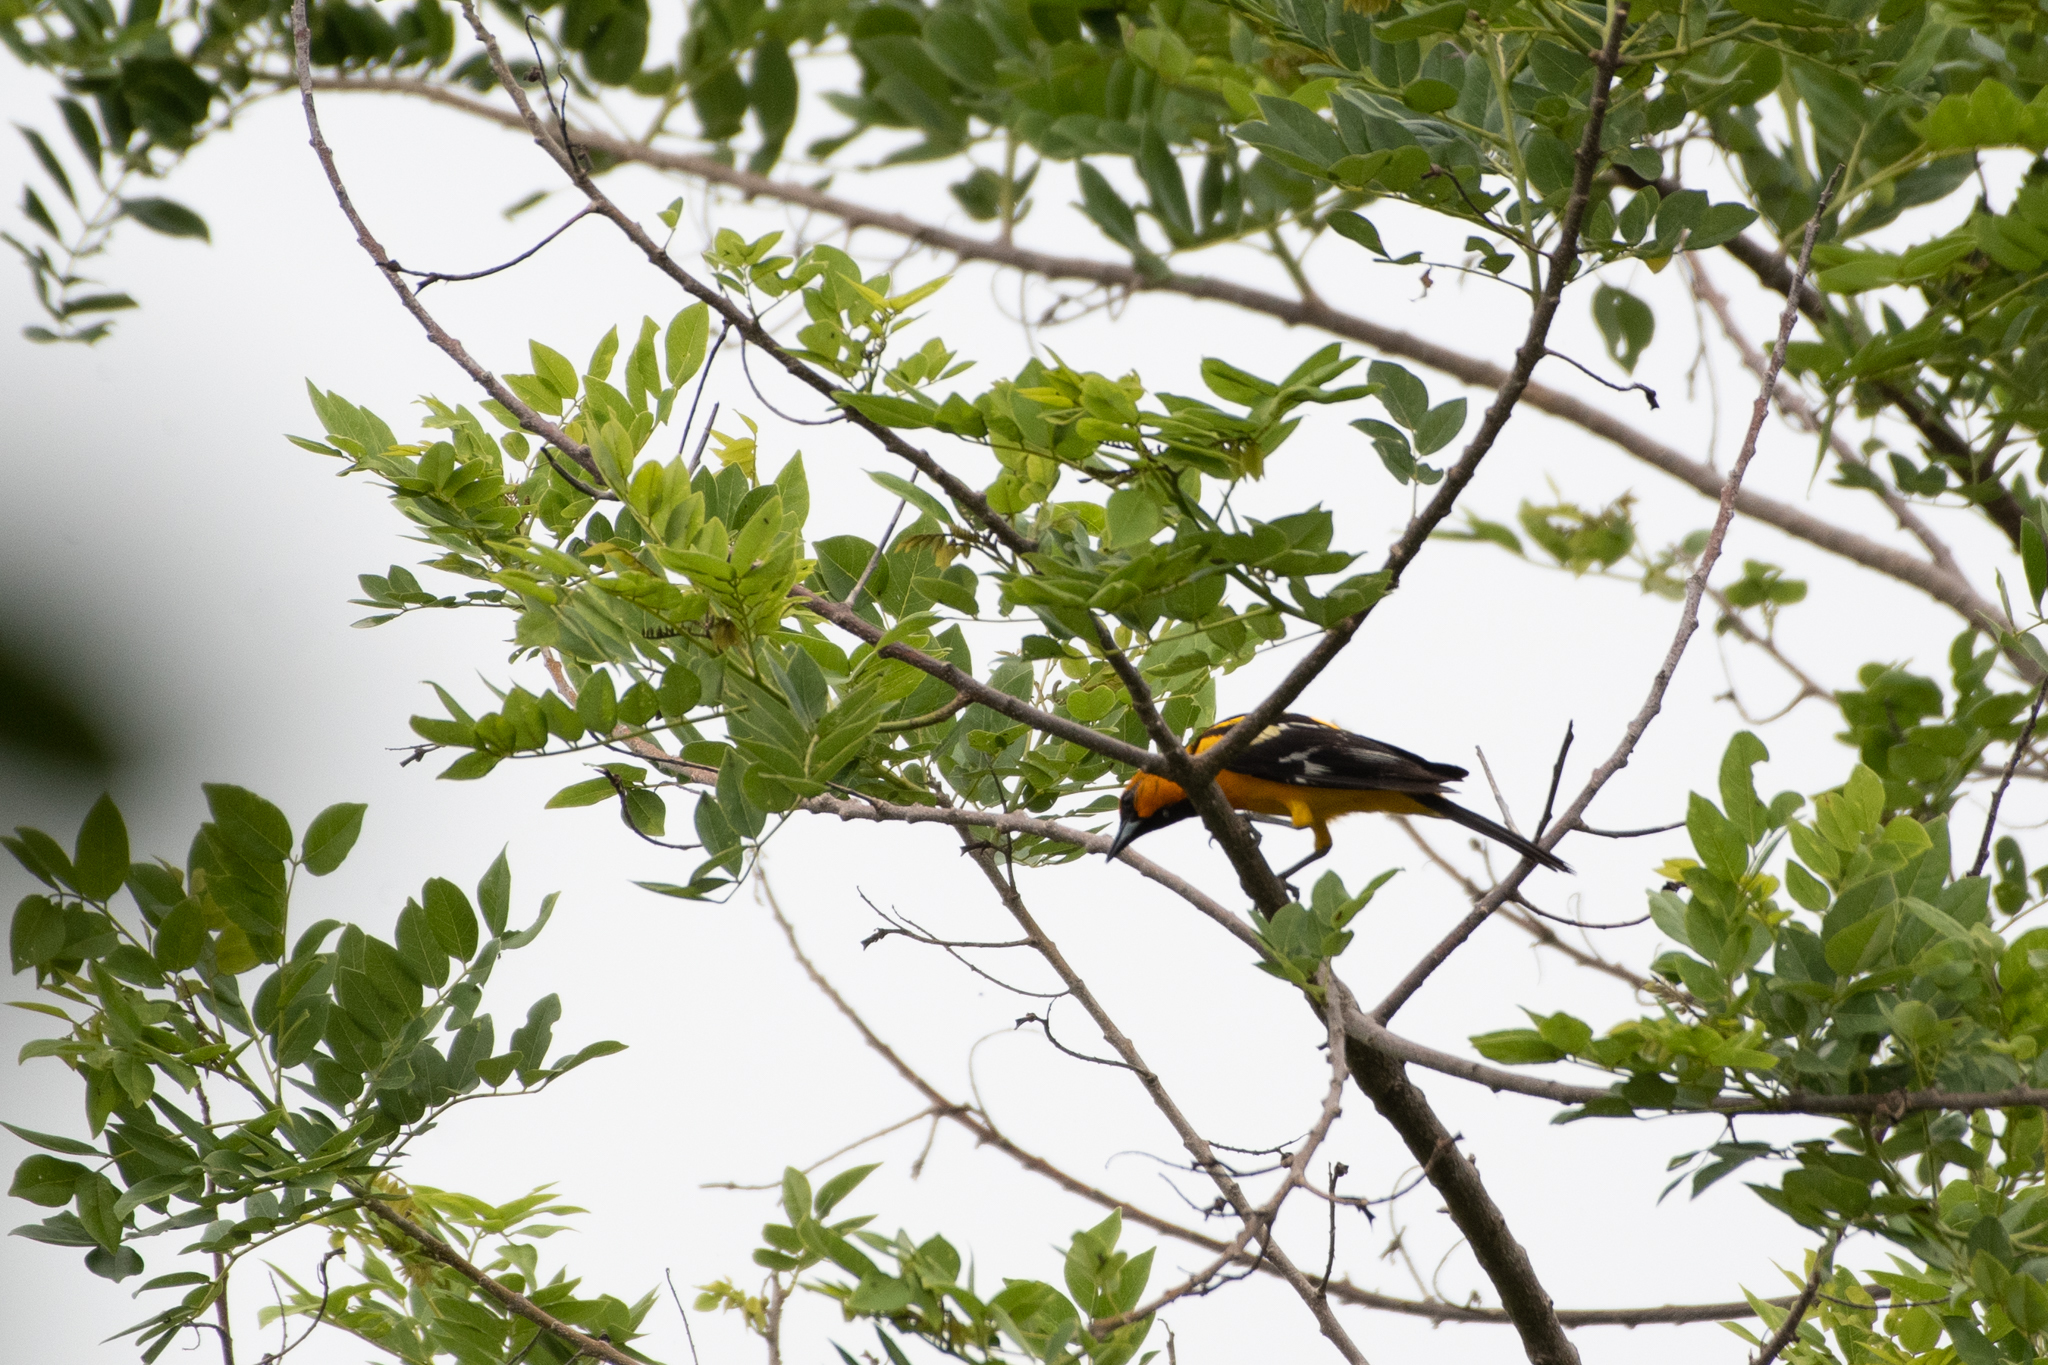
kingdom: Animalia
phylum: Chordata
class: Aves
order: Passeriformes
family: Icteridae
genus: Icterus
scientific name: Icterus pustulatus
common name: Streak-backed oriole
